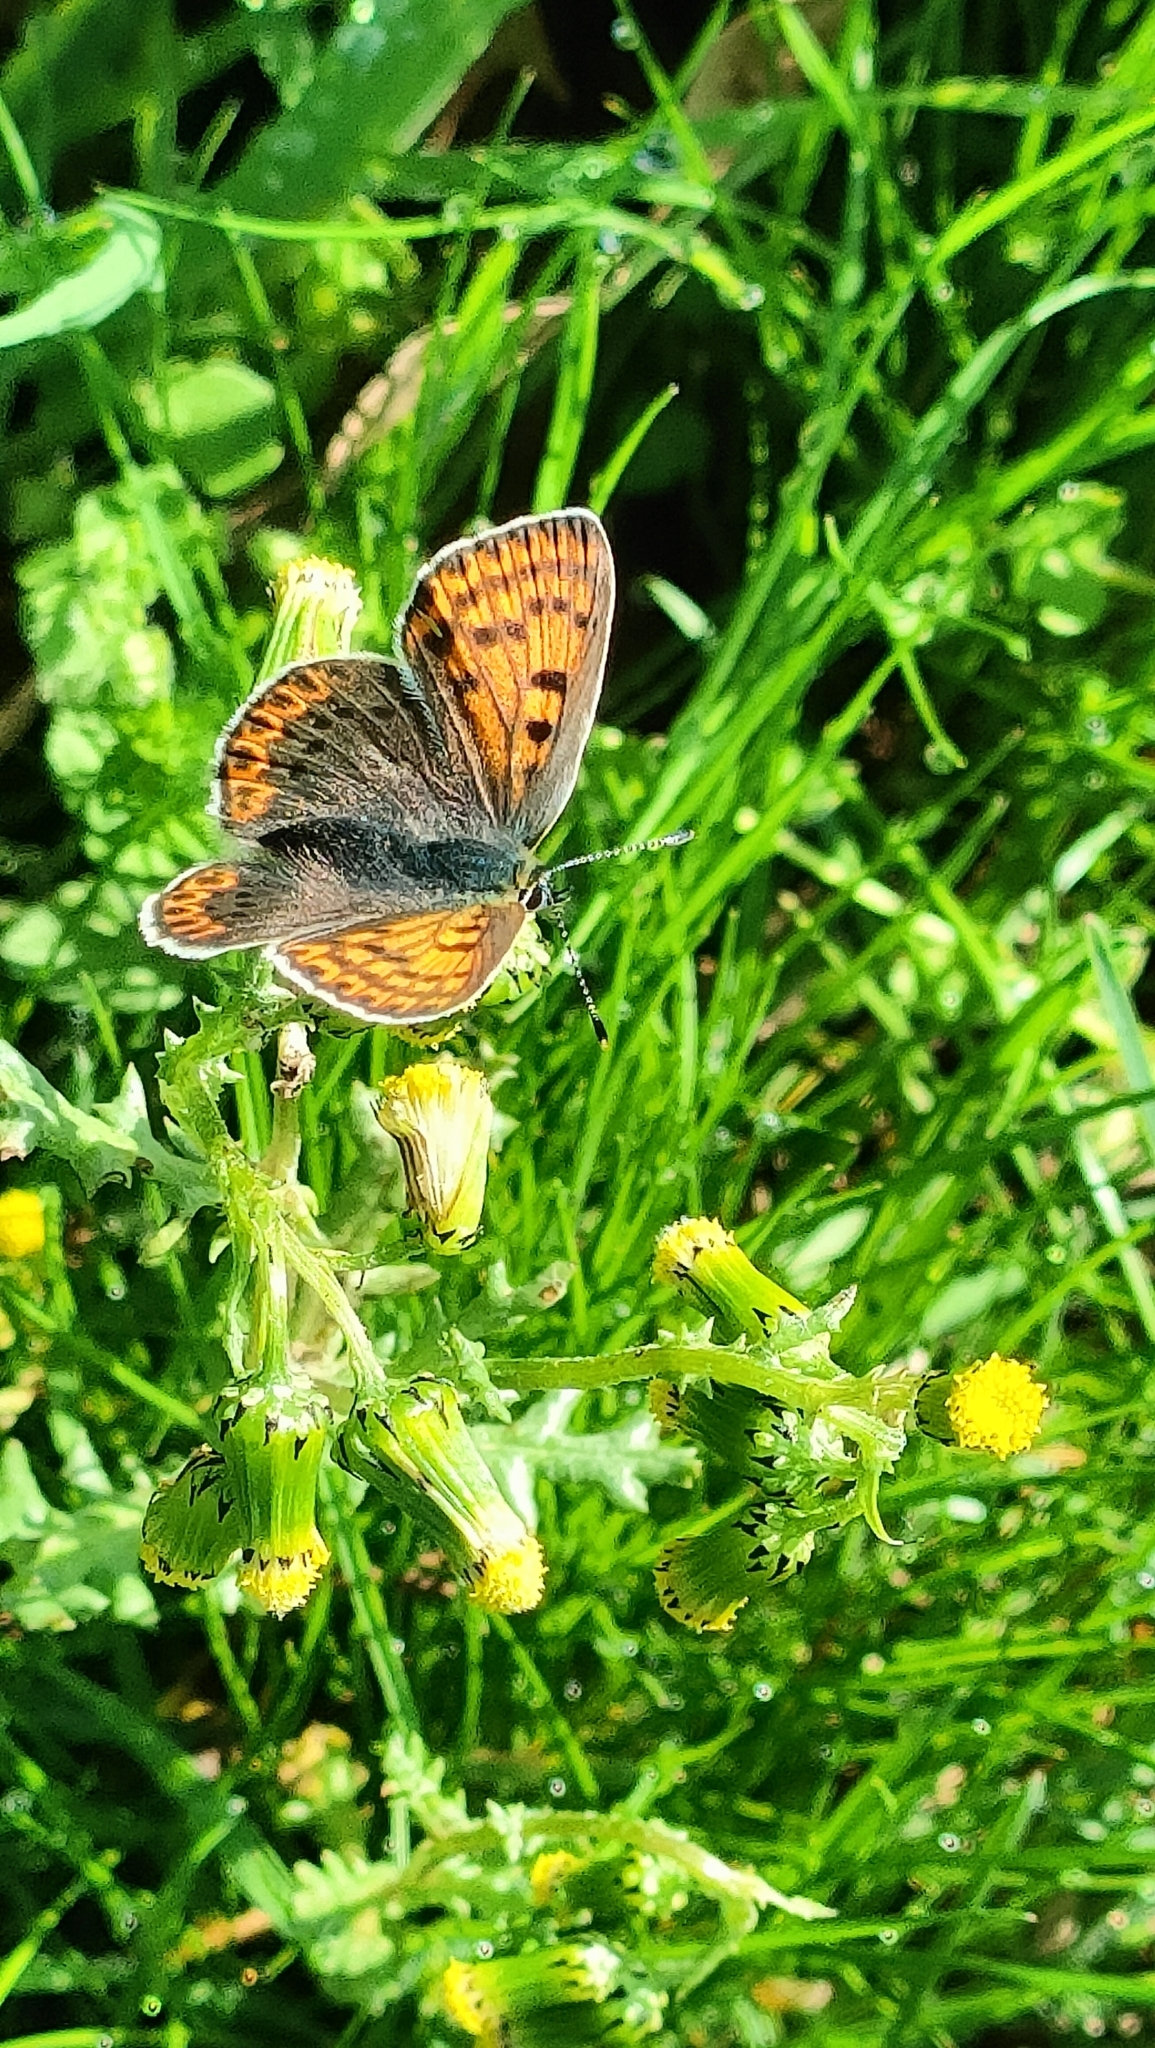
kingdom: Animalia
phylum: Arthropoda
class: Insecta
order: Lepidoptera
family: Lycaenidae
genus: Loweia
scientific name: Loweia tityrus
